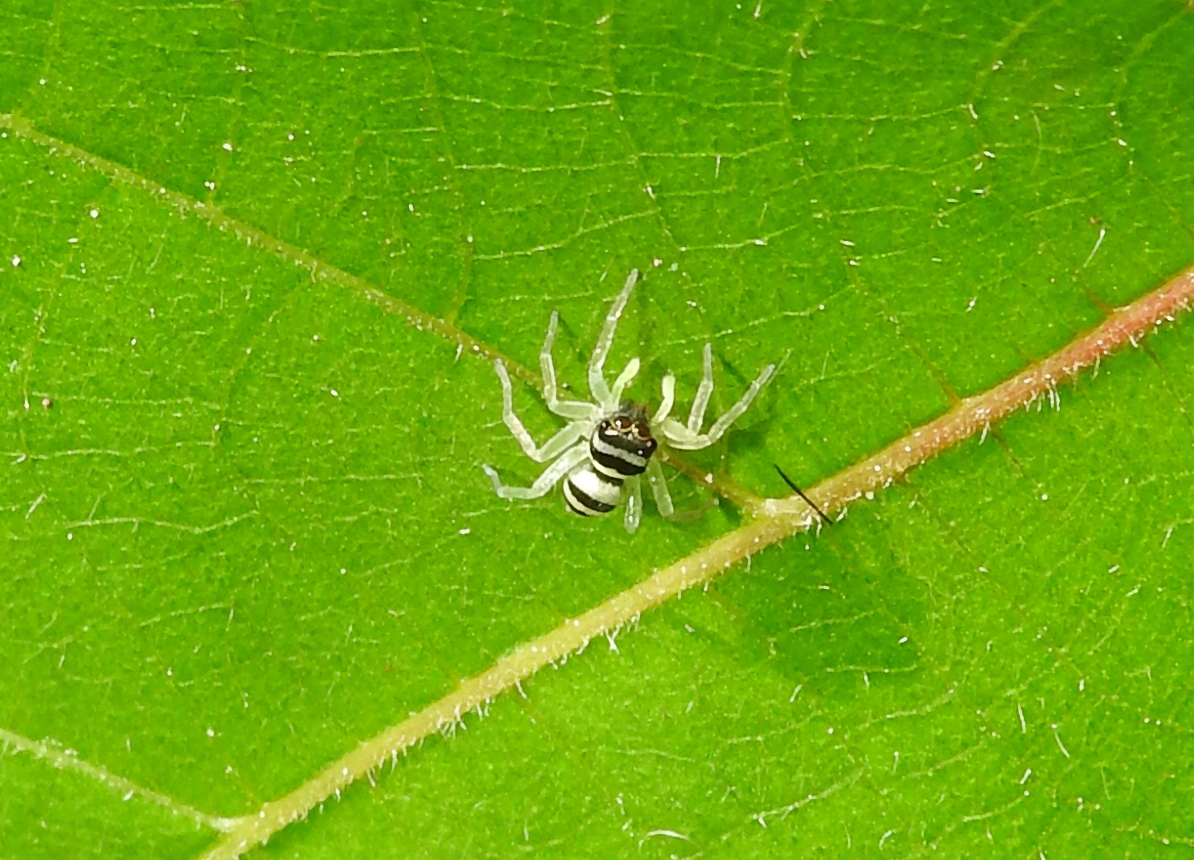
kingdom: Animalia
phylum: Arthropoda
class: Arachnida
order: Araneae
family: Salticidae
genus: Phintella
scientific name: Phintella vittata
